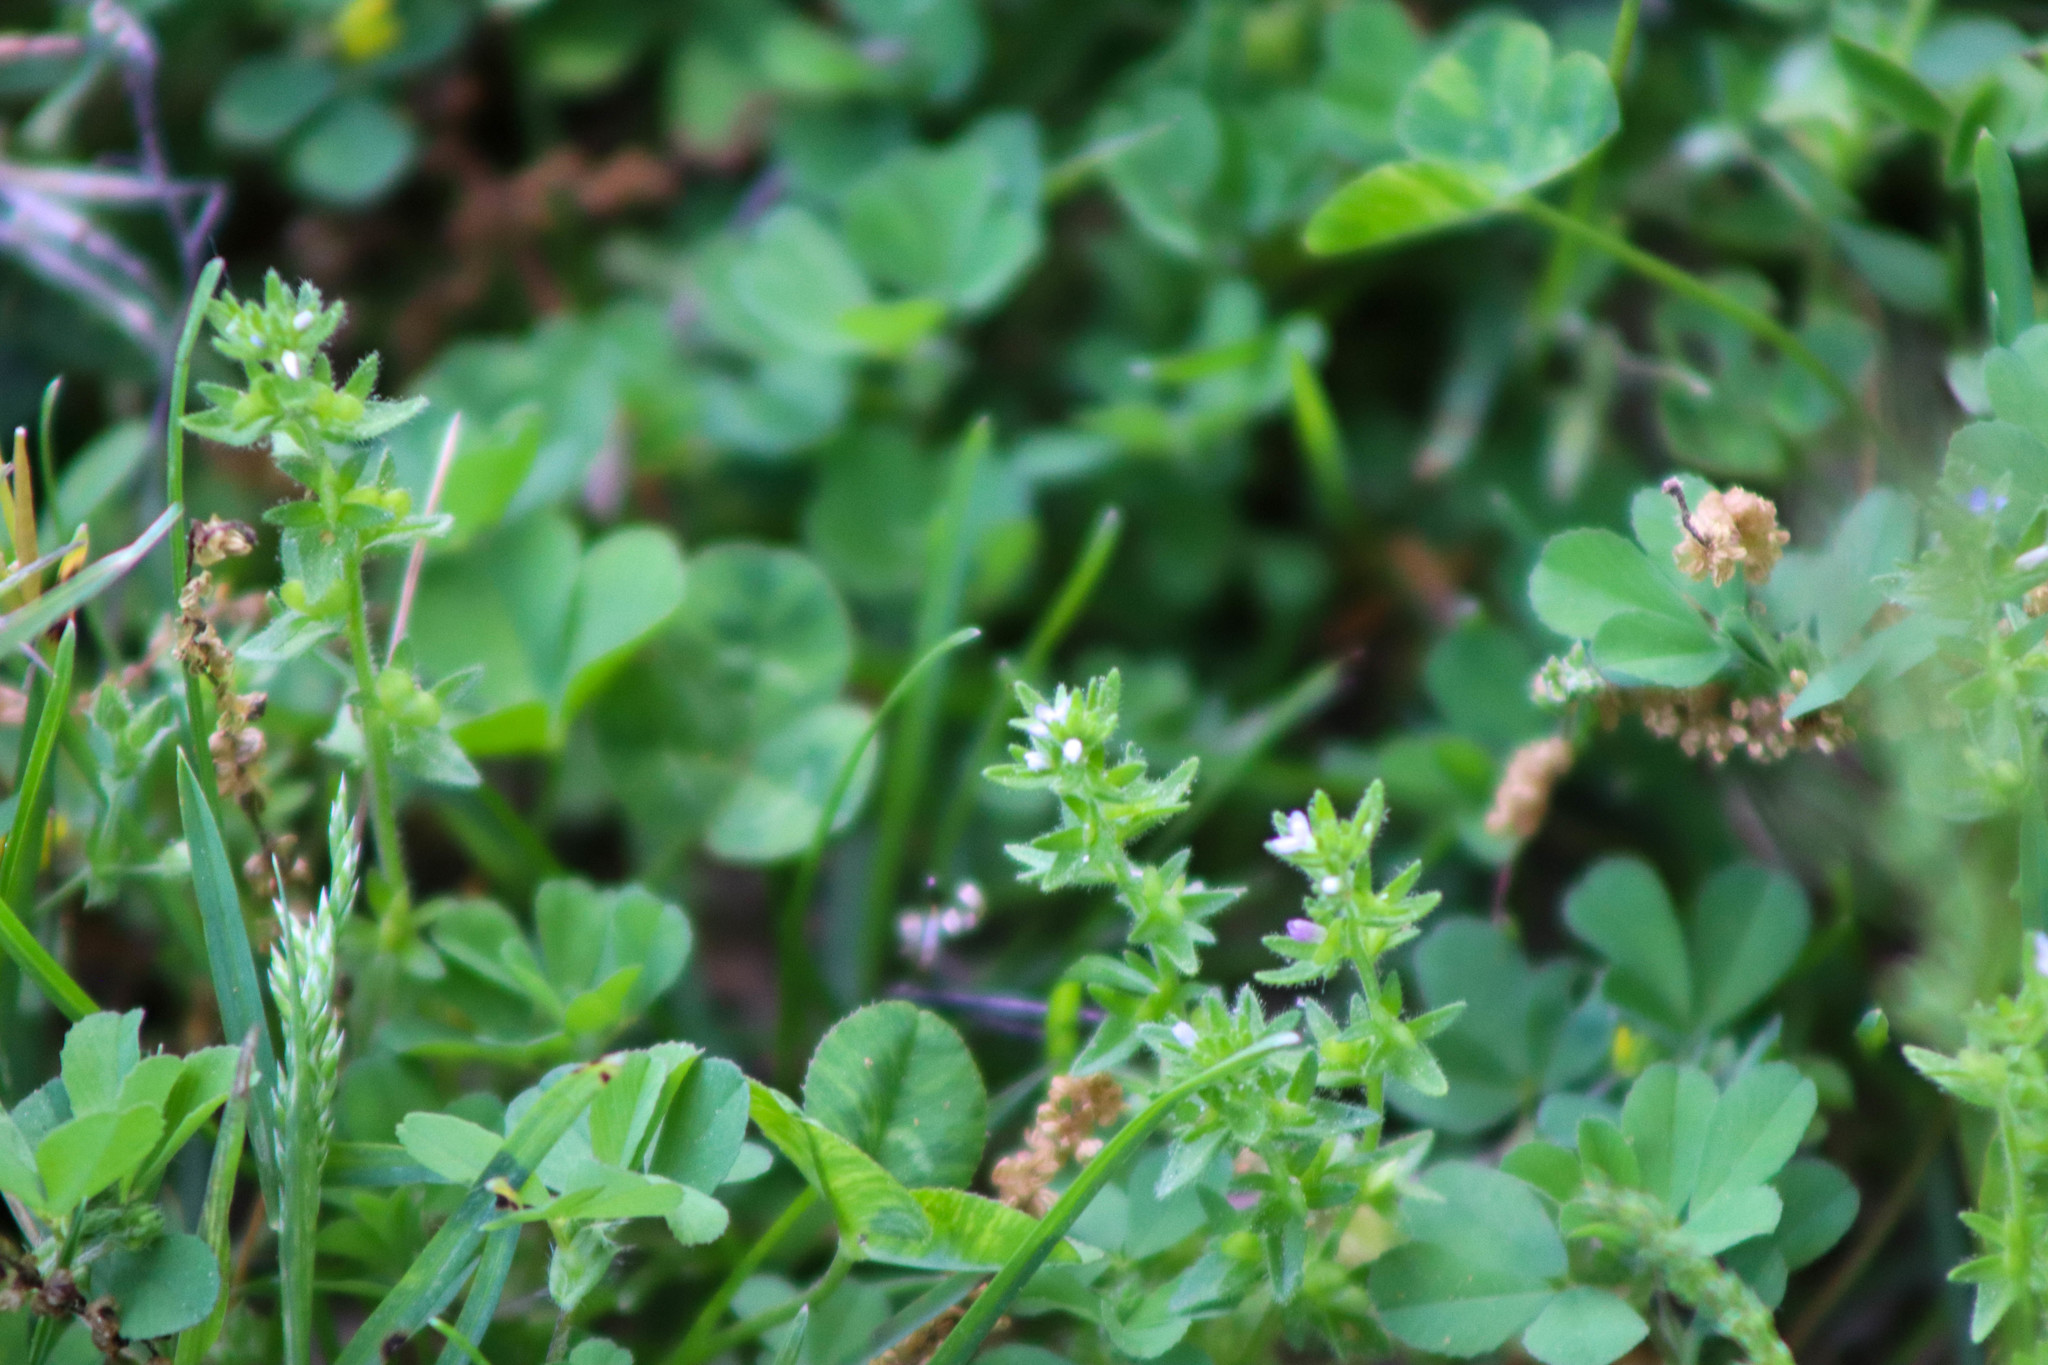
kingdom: Plantae
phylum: Tracheophyta
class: Magnoliopsida
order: Lamiales
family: Plantaginaceae
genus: Veronica
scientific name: Veronica arvensis
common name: Corn speedwell
